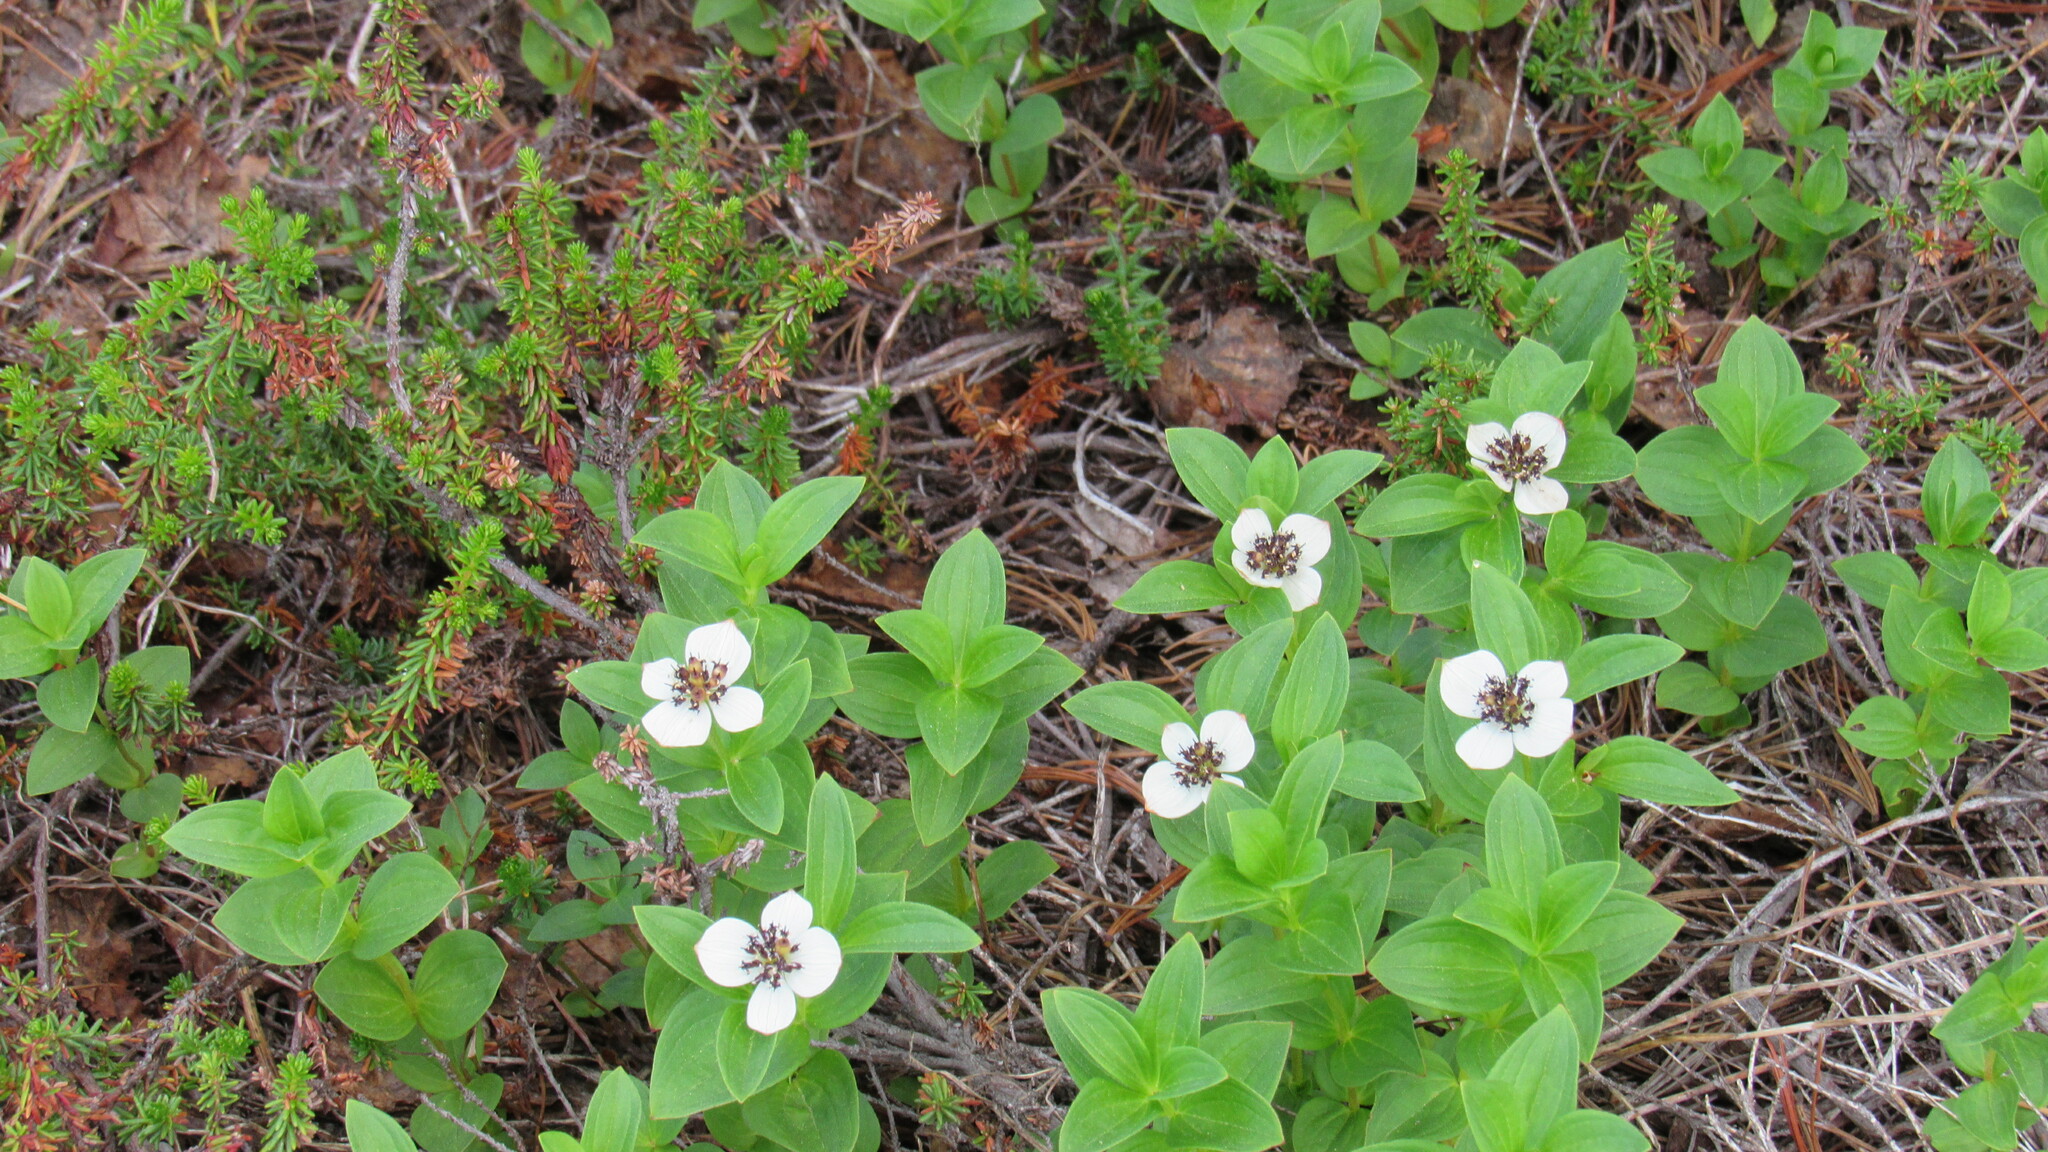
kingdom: Plantae
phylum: Tracheophyta
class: Magnoliopsida
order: Cornales
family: Cornaceae
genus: Cornus
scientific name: Cornus suecica
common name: Dwarf cornel
